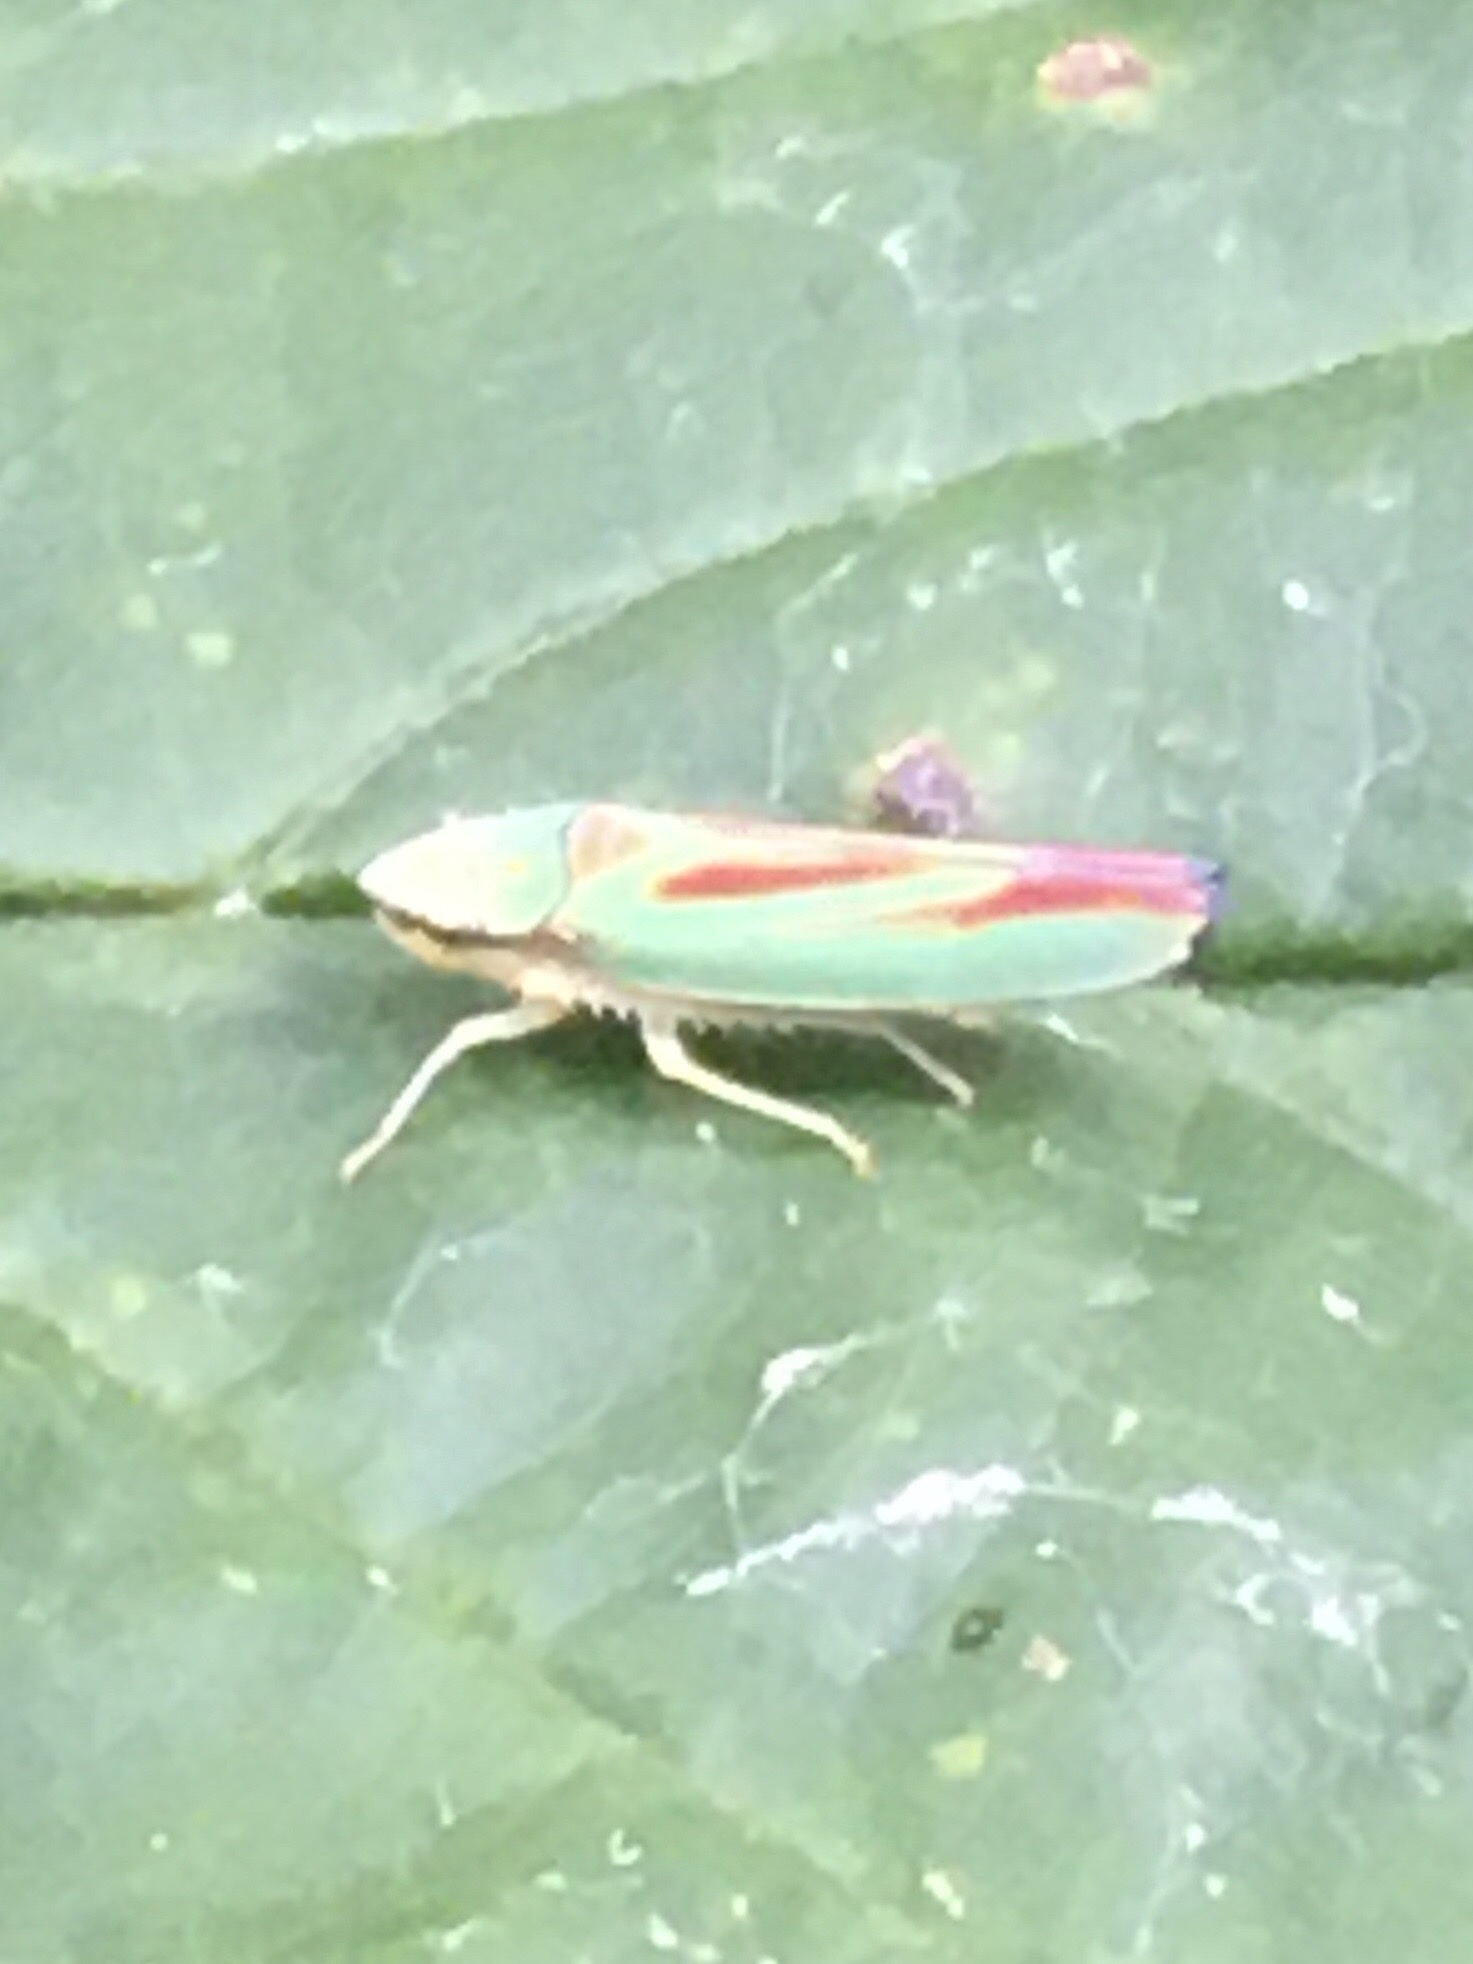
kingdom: Animalia
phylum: Arthropoda
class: Insecta
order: Hemiptera
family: Cicadellidae
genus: Graphocephala
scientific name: Graphocephala fennahi
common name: Rhododendron leafhopper
